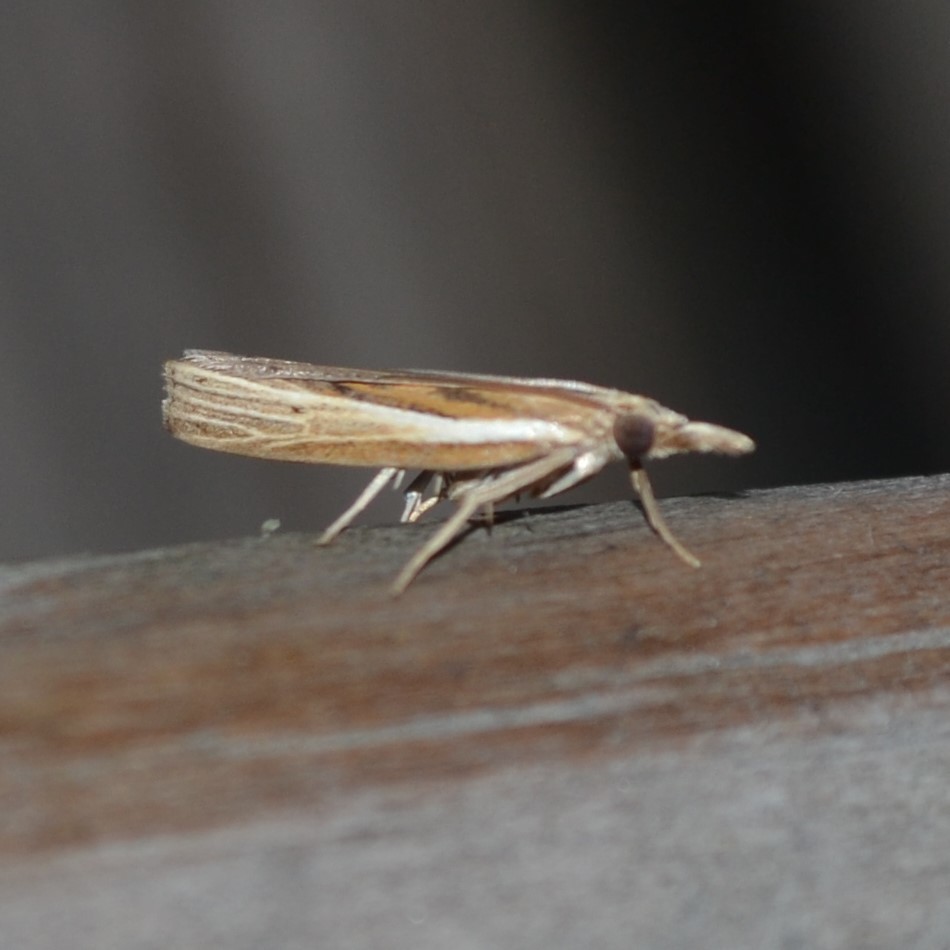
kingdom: Animalia
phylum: Arthropoda
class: Insecta
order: Lepidoptera
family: Crambidae
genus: Fissicrambus
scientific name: Fissicrambus fissiradiellus
